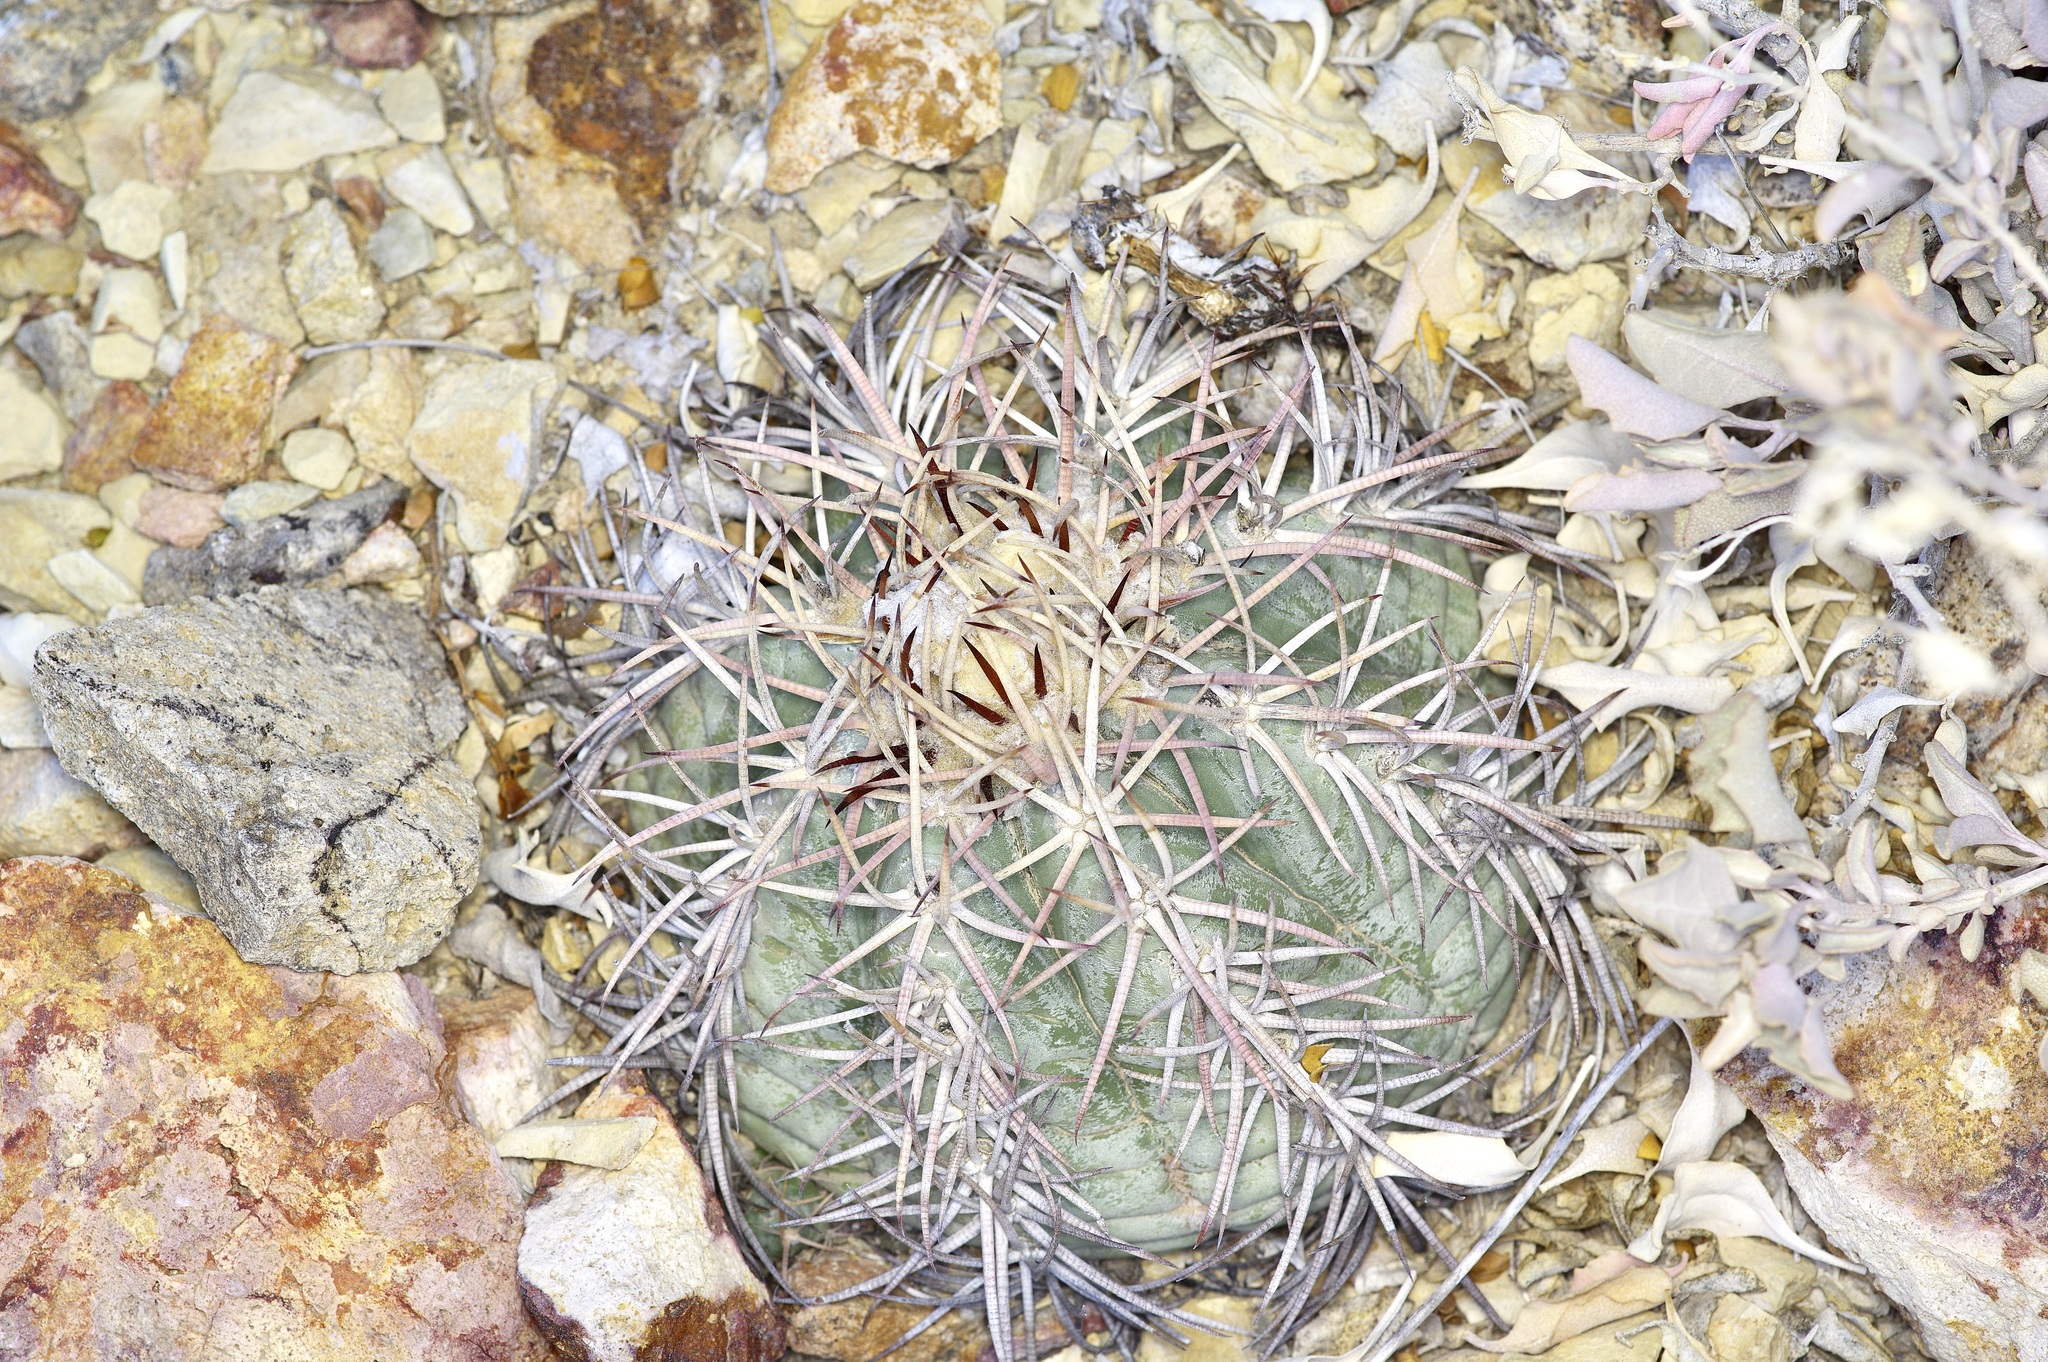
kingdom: Plantae
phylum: Tracheophyta
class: Magnoliopsida
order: Caryophyllales
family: Cactaceae
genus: Echinocactus
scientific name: Echinocactus horizonthalonius
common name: Devilshead
